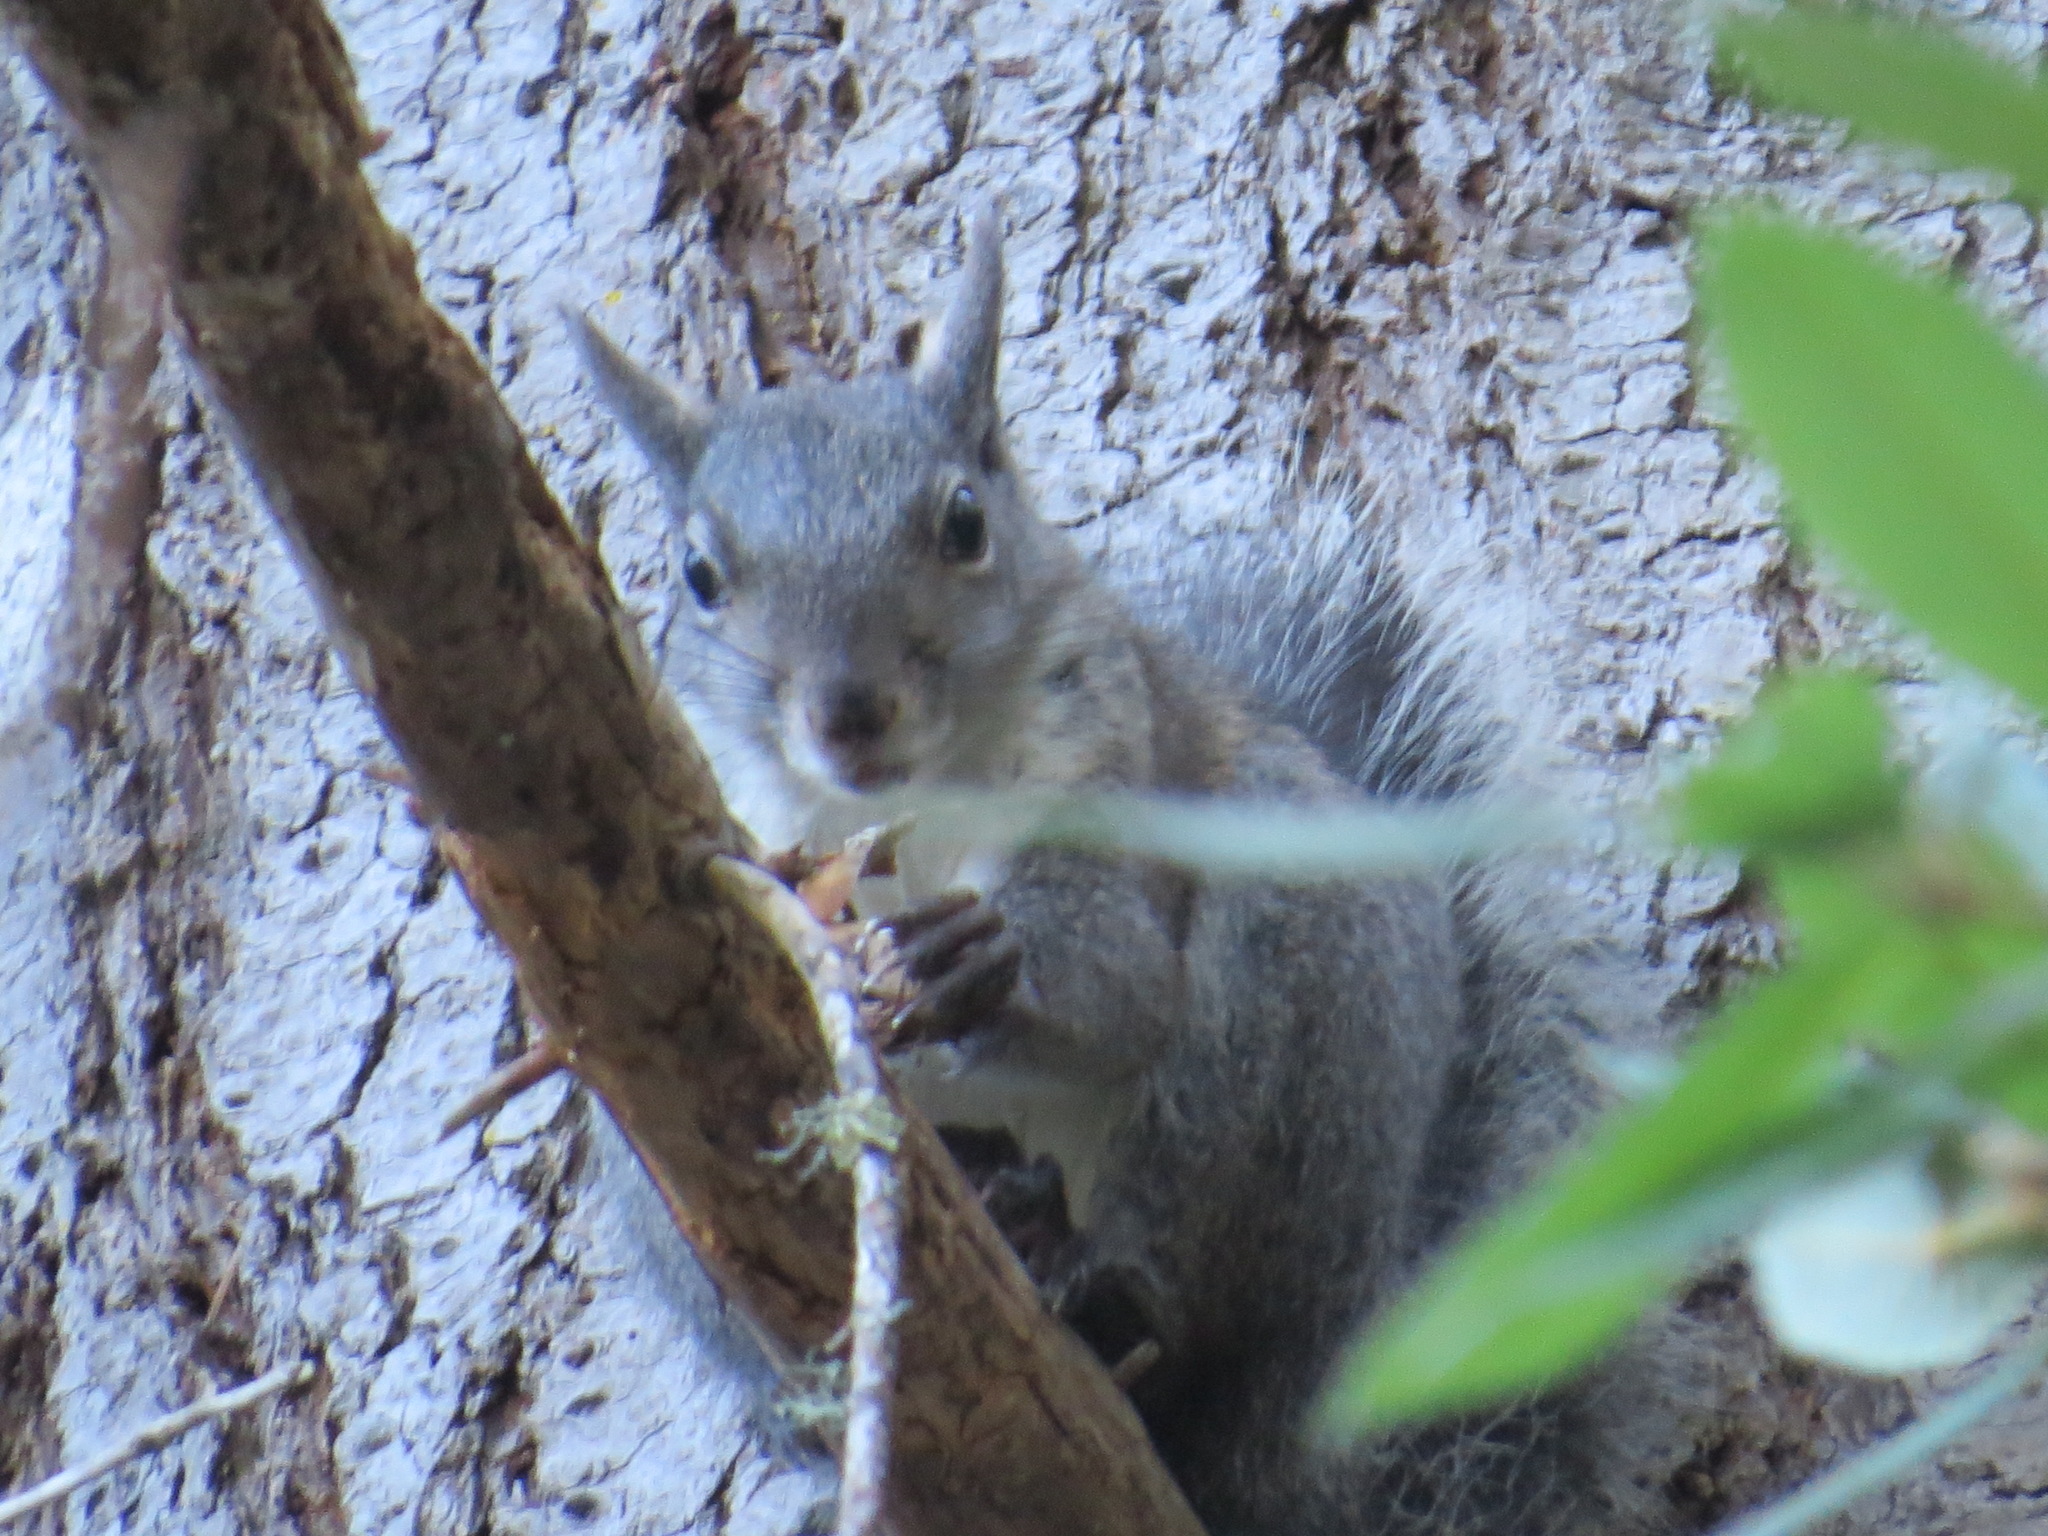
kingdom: Animalia
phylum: Chordata
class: Mammalia
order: Rodentia
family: Sciuridae
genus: Sciurus
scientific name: Sciurus griseus
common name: Western gray squirrel
